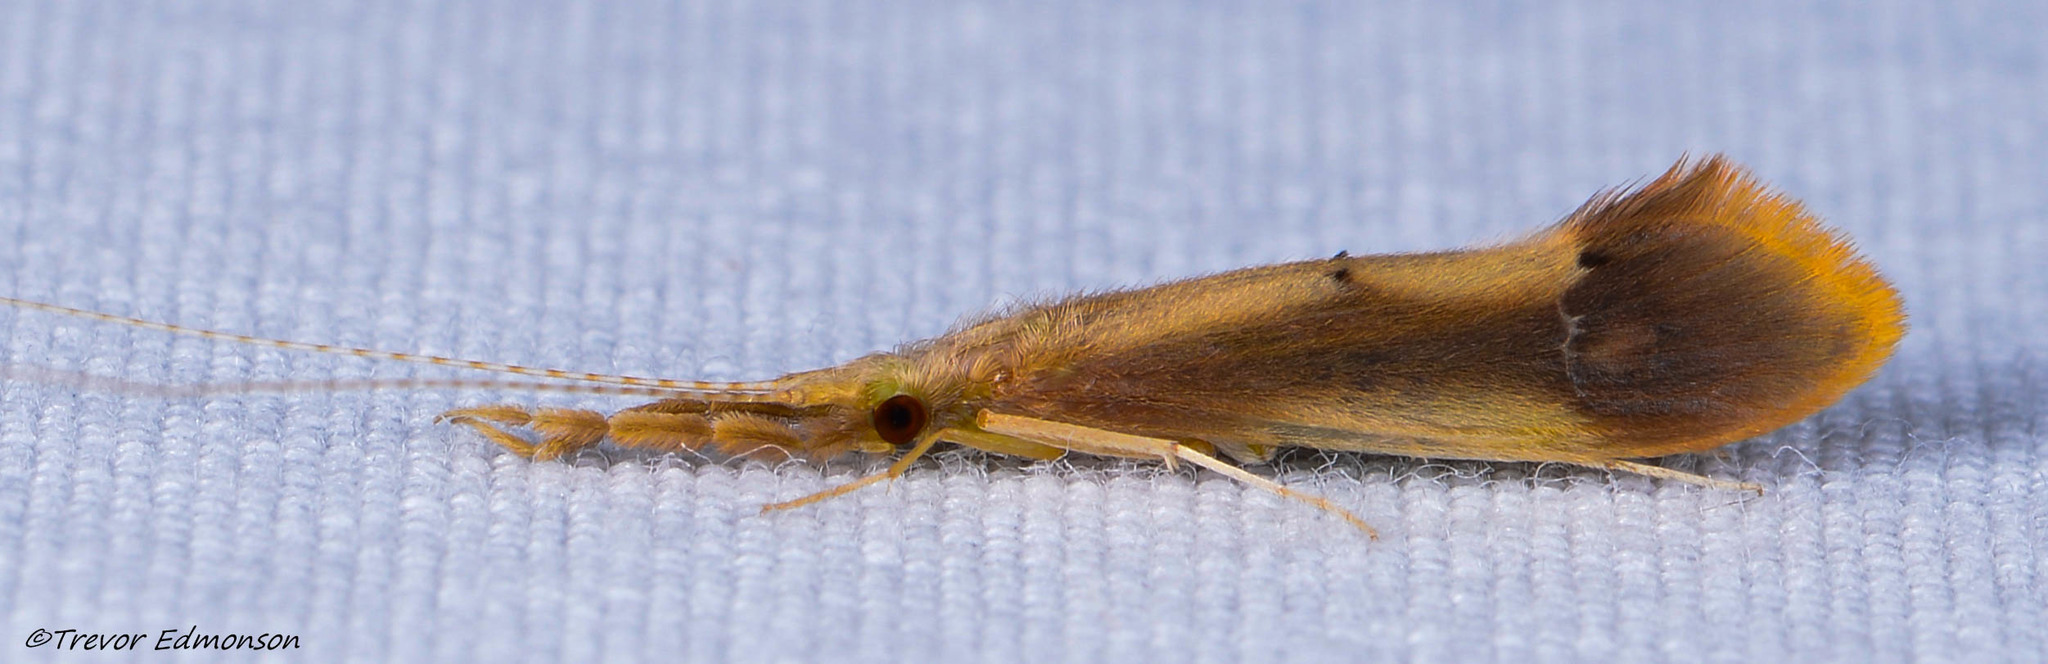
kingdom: Animalia
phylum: Arthropoda
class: Insecta
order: Trichoptera
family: Leptoceridae
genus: Triaenodes
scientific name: Triaenodes marginatus
